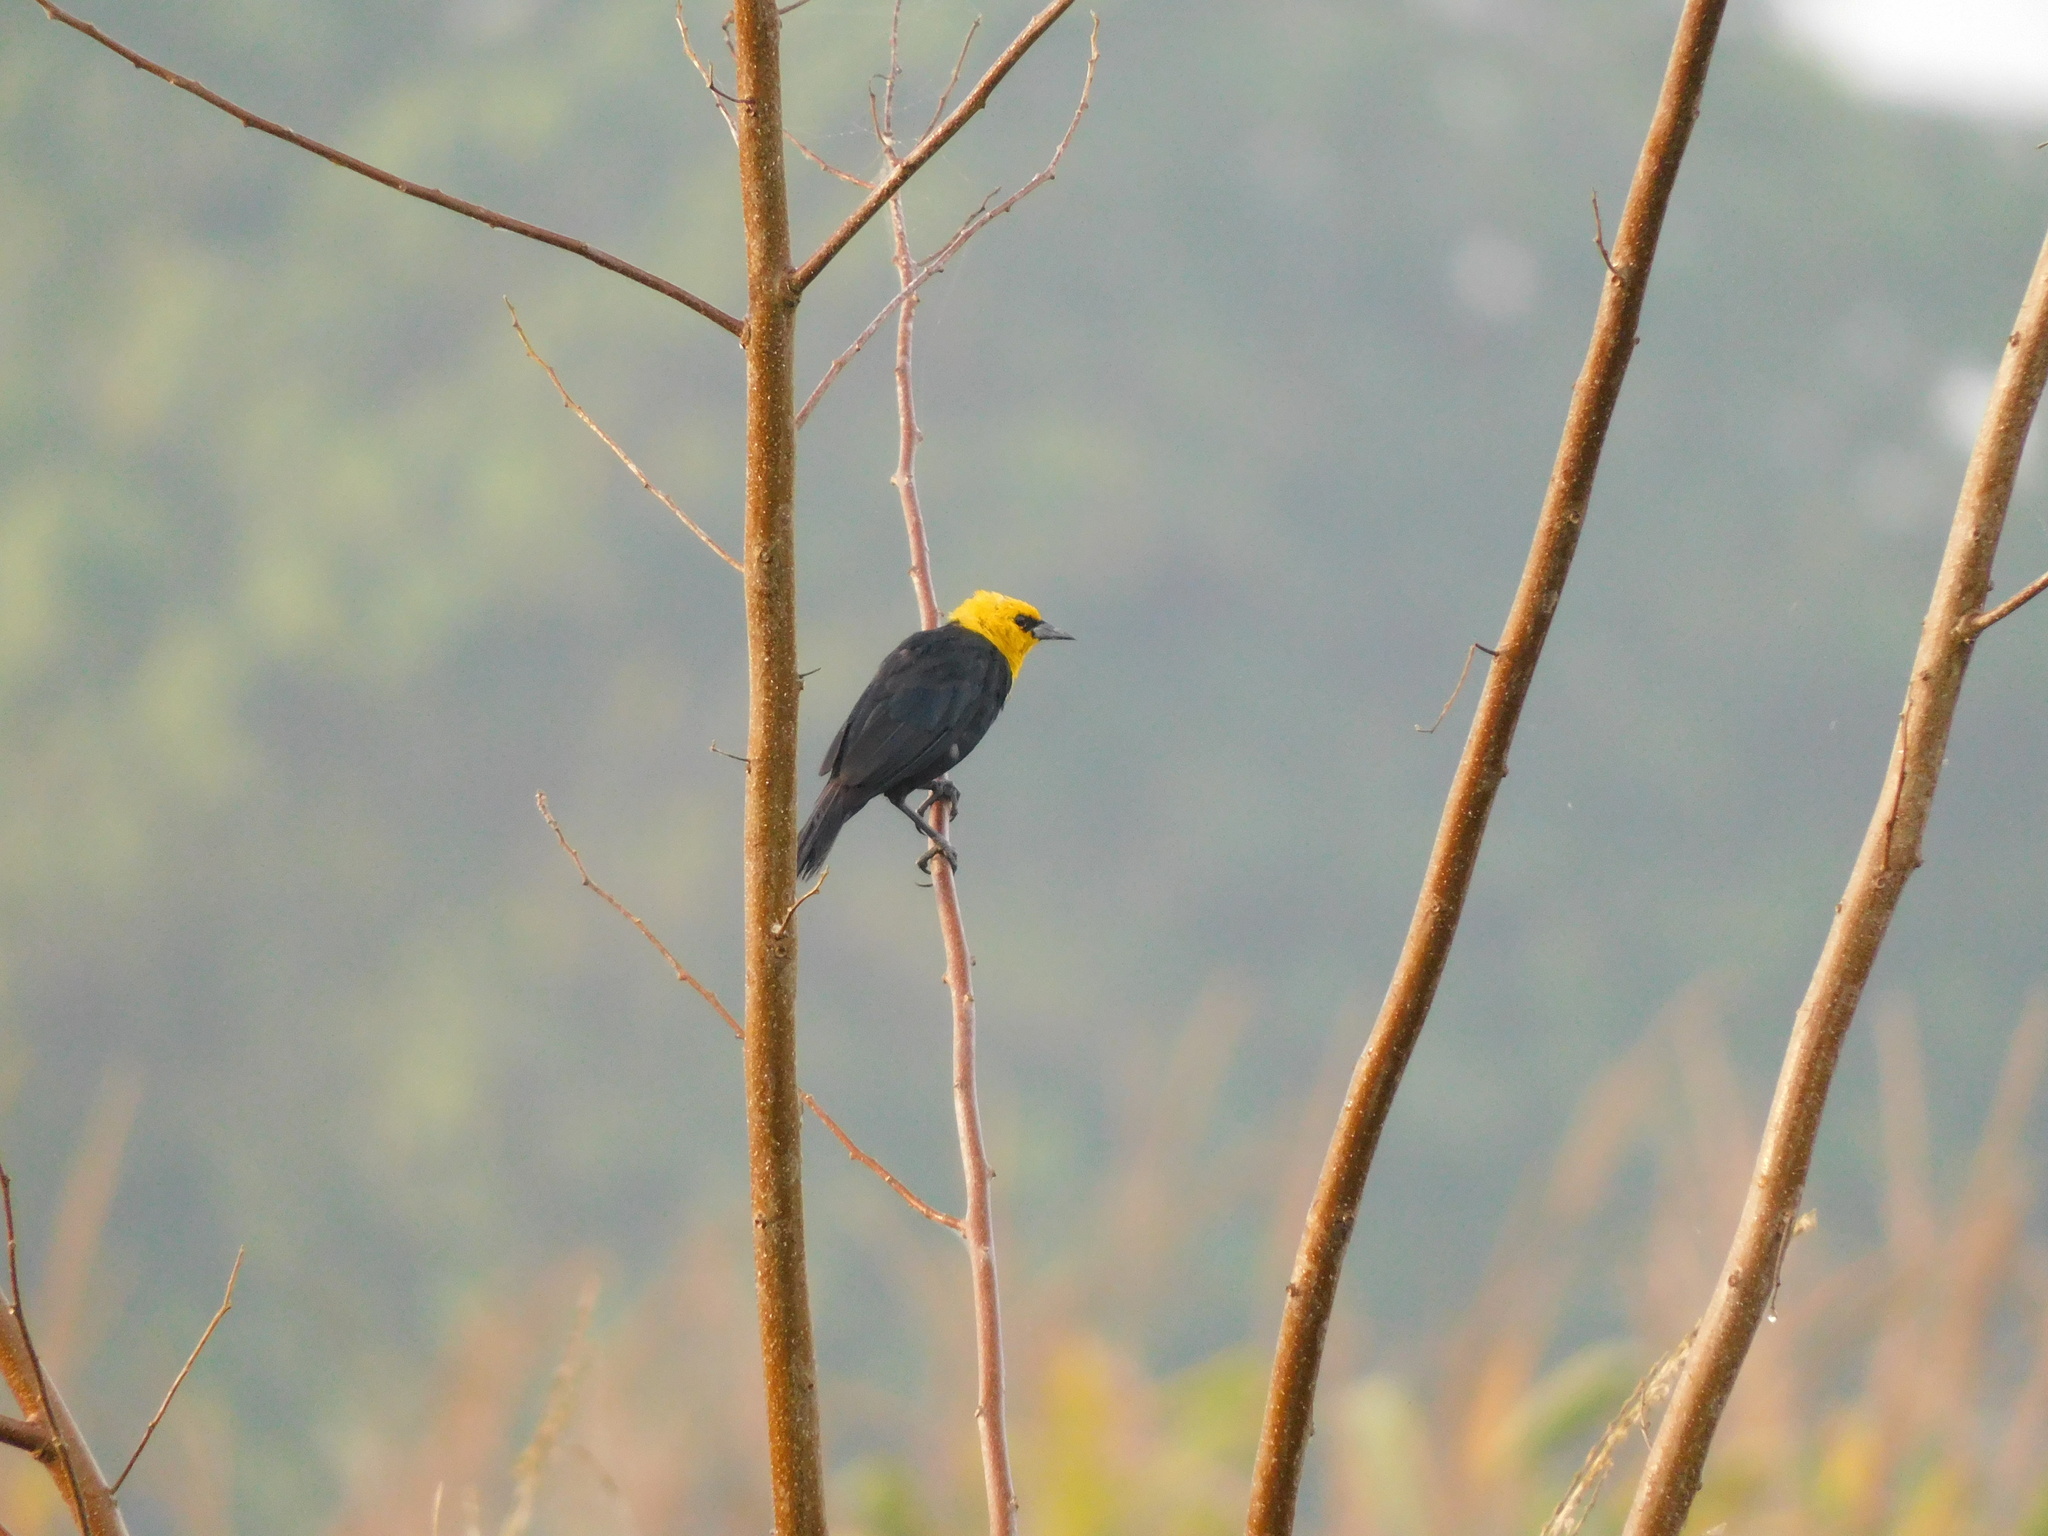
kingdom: Animalia
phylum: Chordata
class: Aves
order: Passeriformes
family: Icteridae
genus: Chrysomus
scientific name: Chrysomus icterocephalus
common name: Yellow-hooded blackbird
